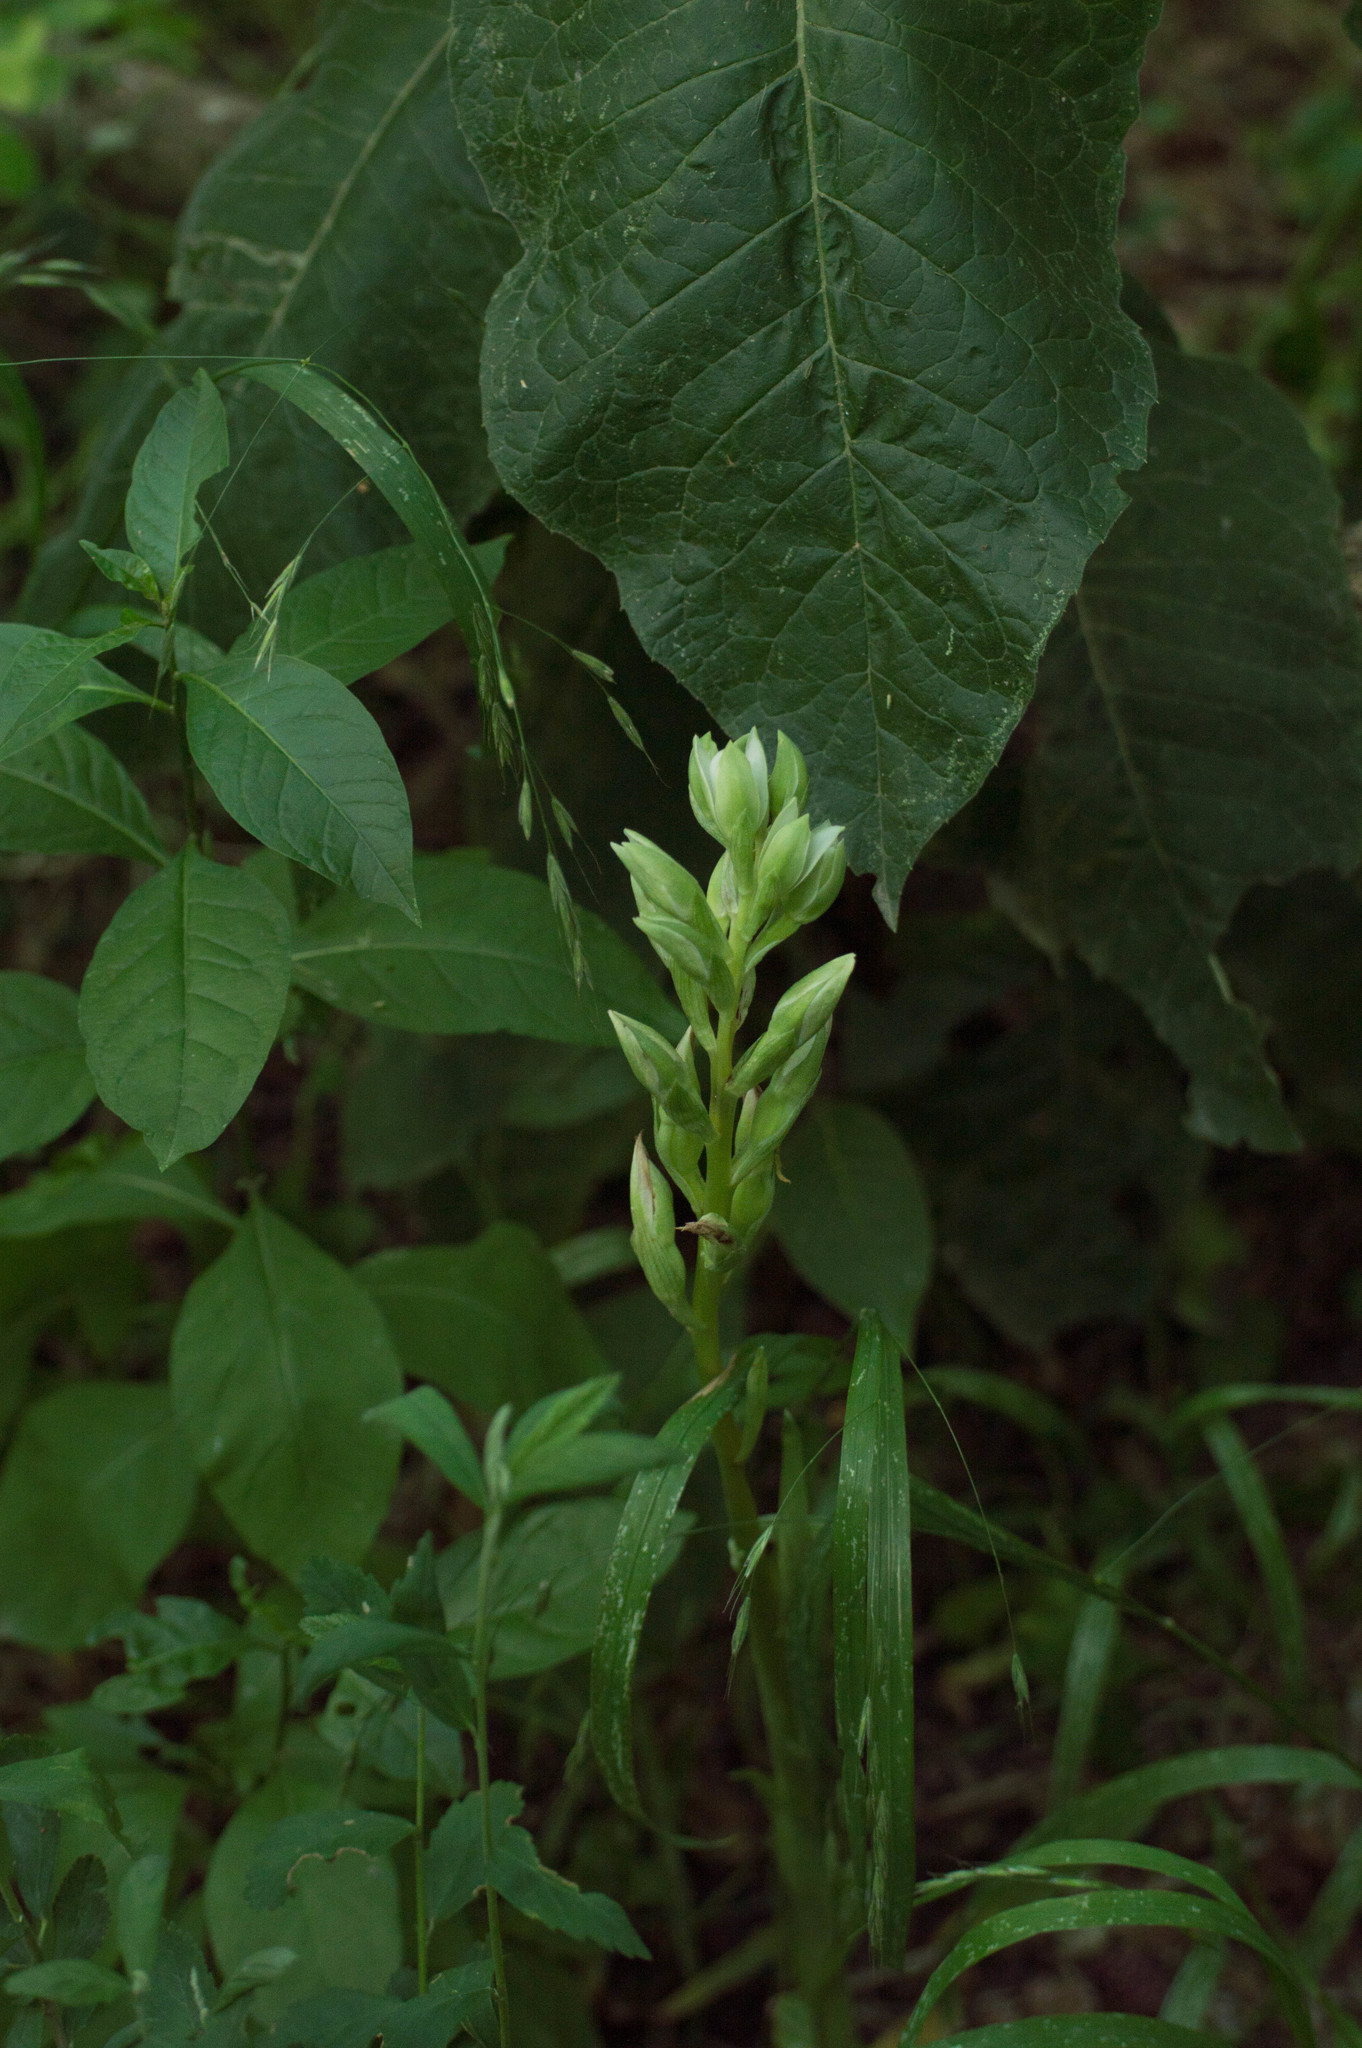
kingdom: Plantae
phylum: Tracheophyta
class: Liliopsida
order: Asparagales
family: Orchidaceae
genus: Chloraea
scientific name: Chloraea membranacea
